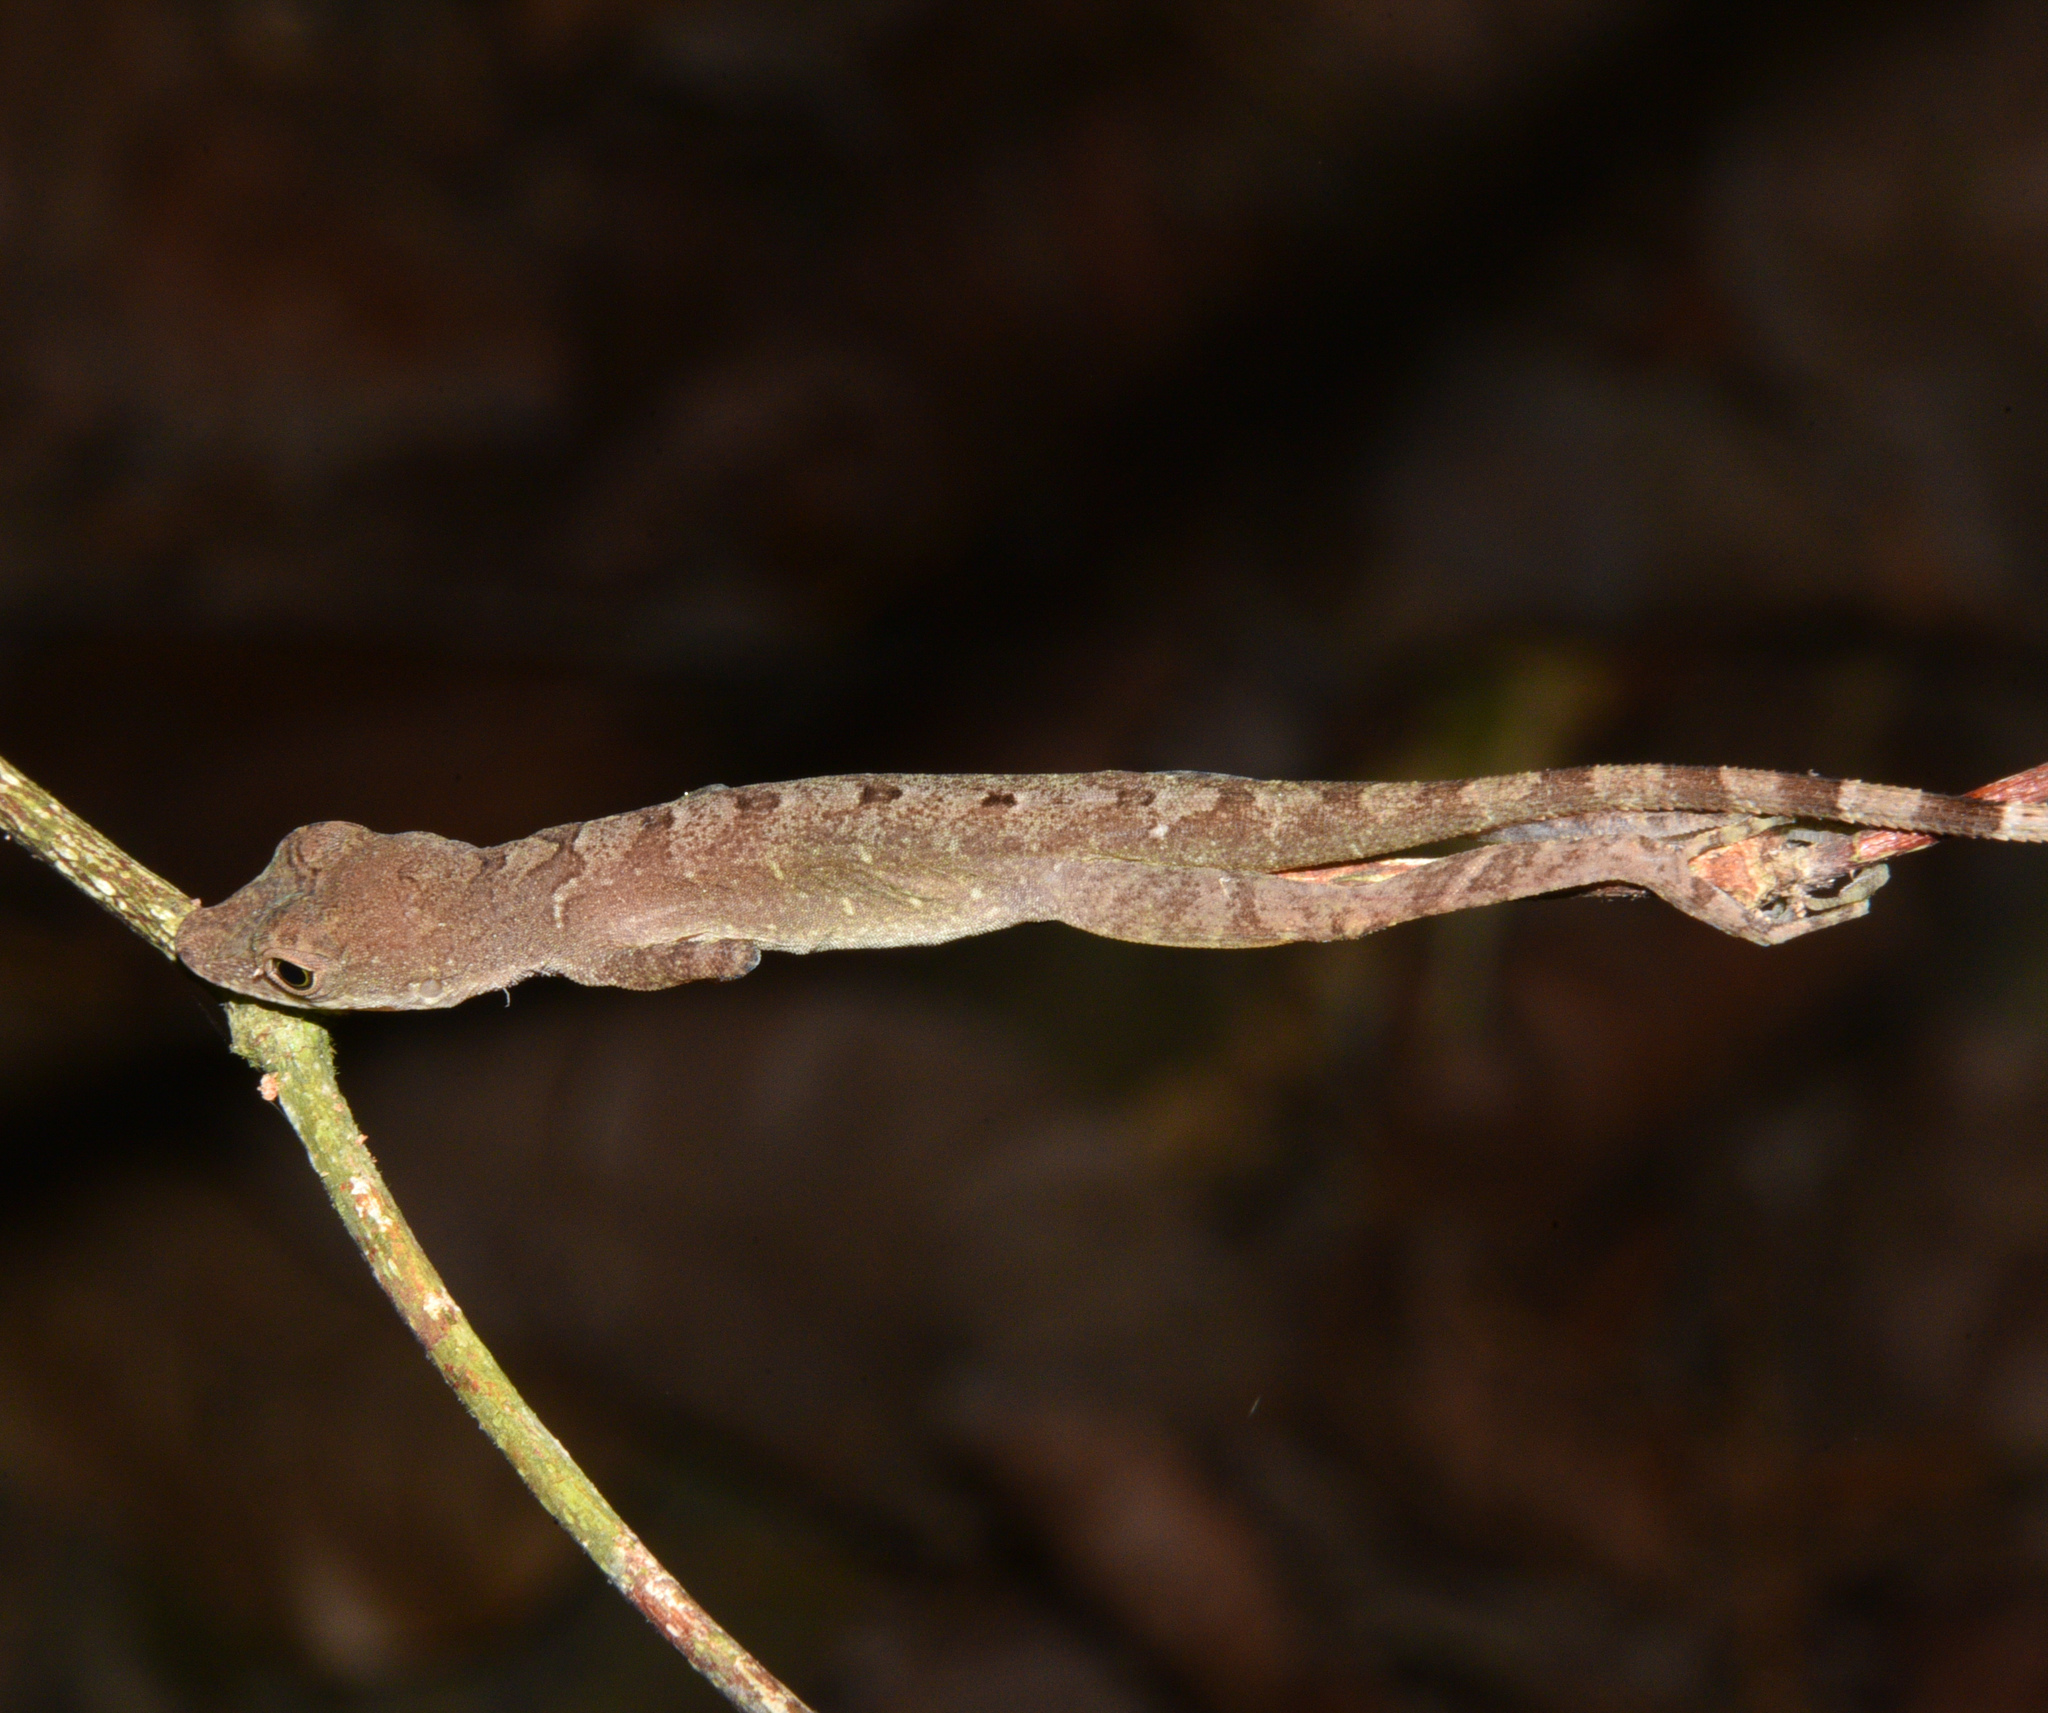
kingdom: Animalia
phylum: Chordata
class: Squamata
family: Dactyloidae
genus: Anolis
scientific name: Anolis apletophallus
